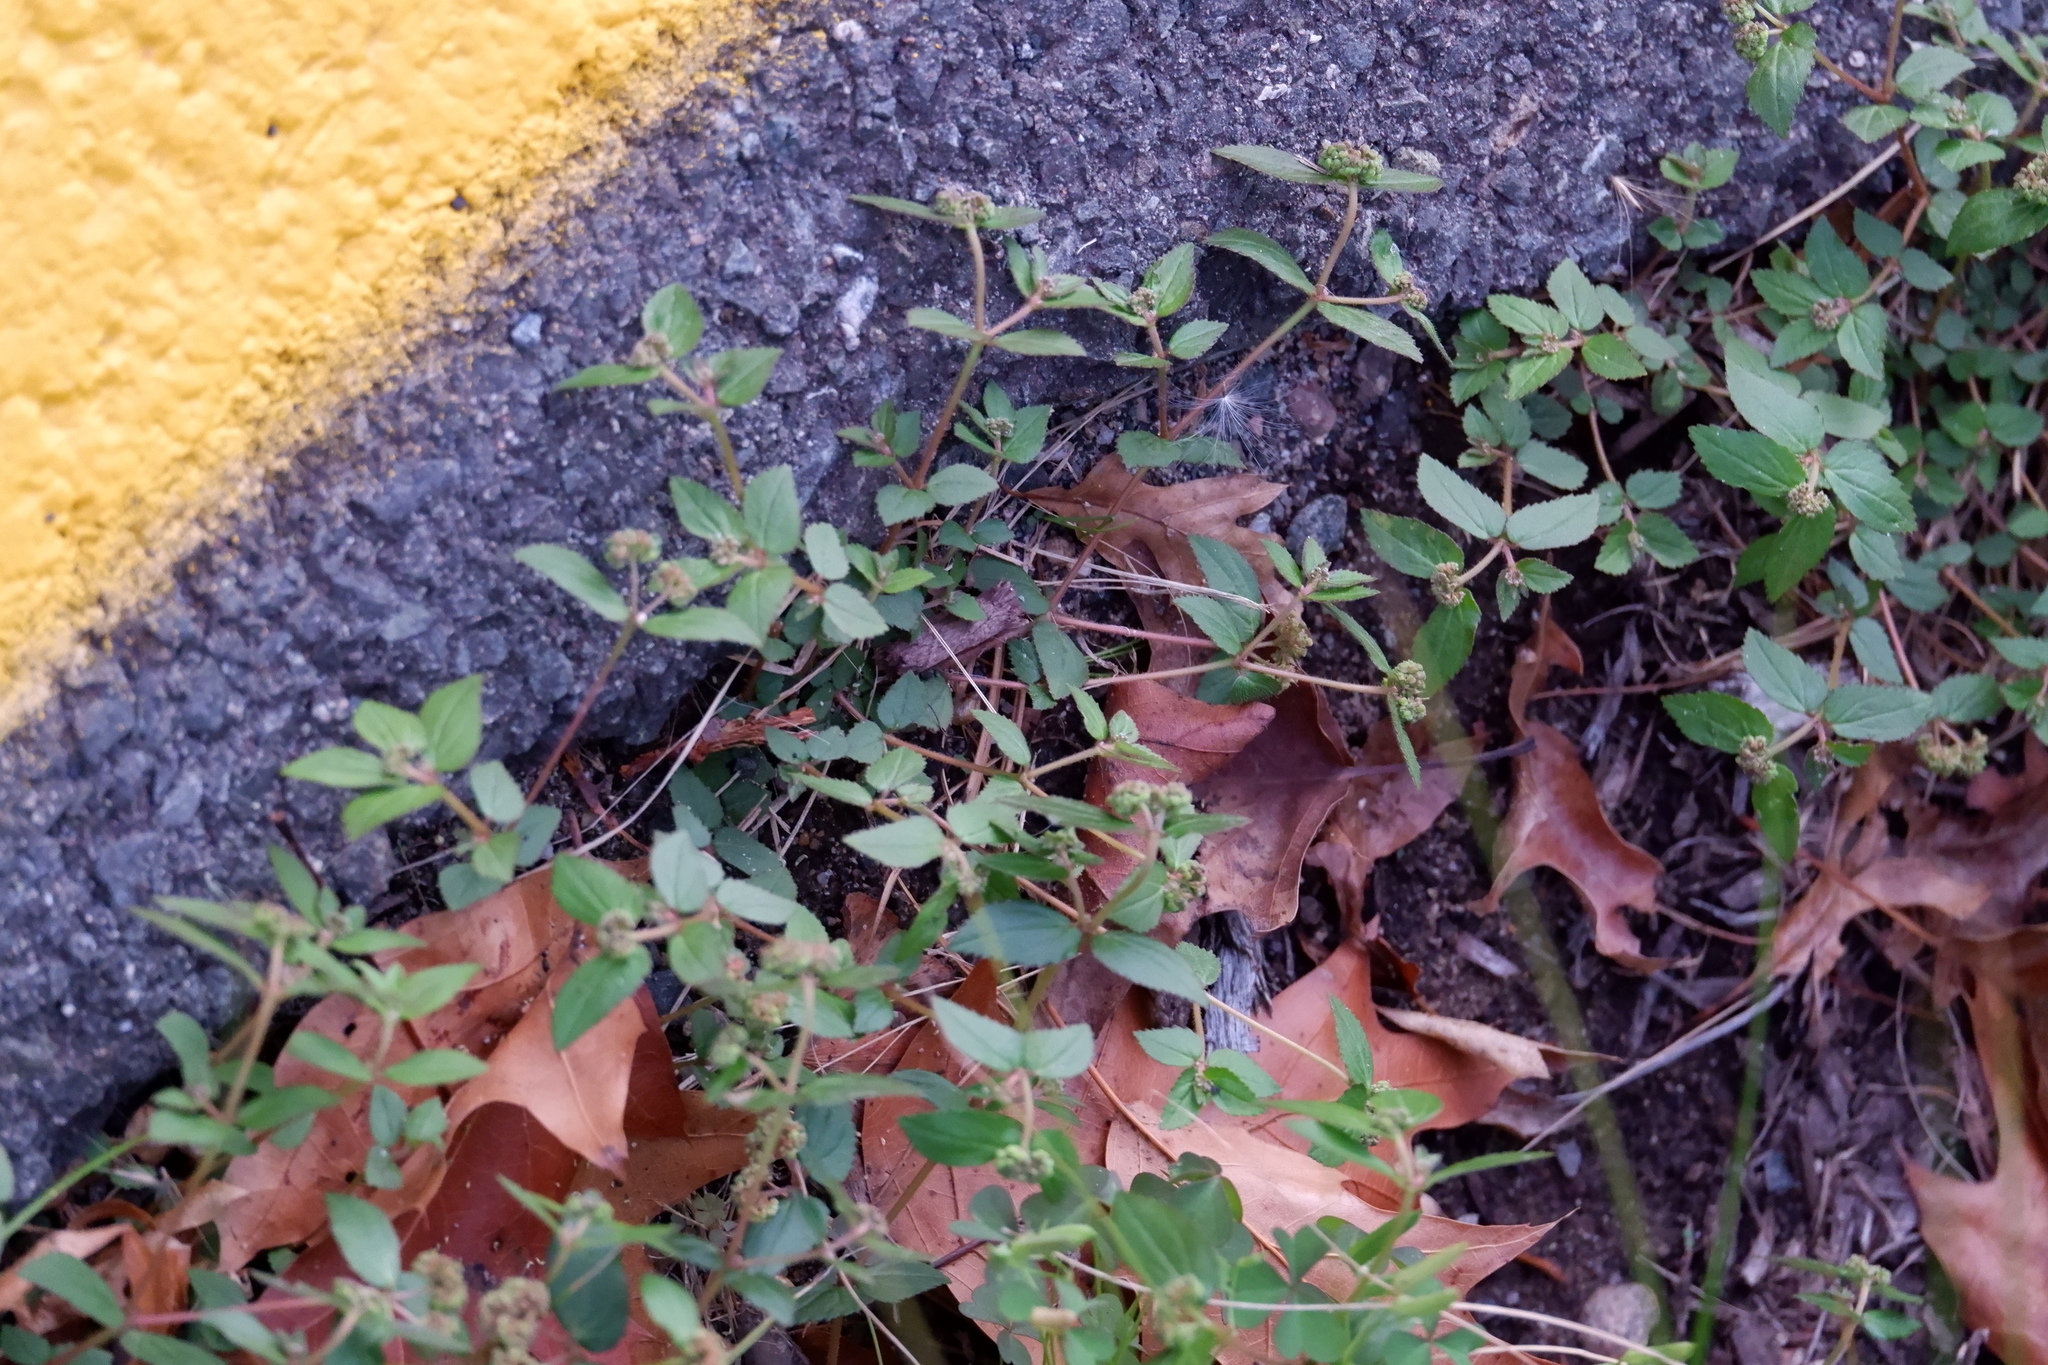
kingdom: Plantae
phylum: Tracheophyta
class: Magnoliopsida
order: Malpighiales
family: Euphorbiaceae
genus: Euphorbia
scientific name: Euphorbia ophthalmica
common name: Florida hammock sandmat
